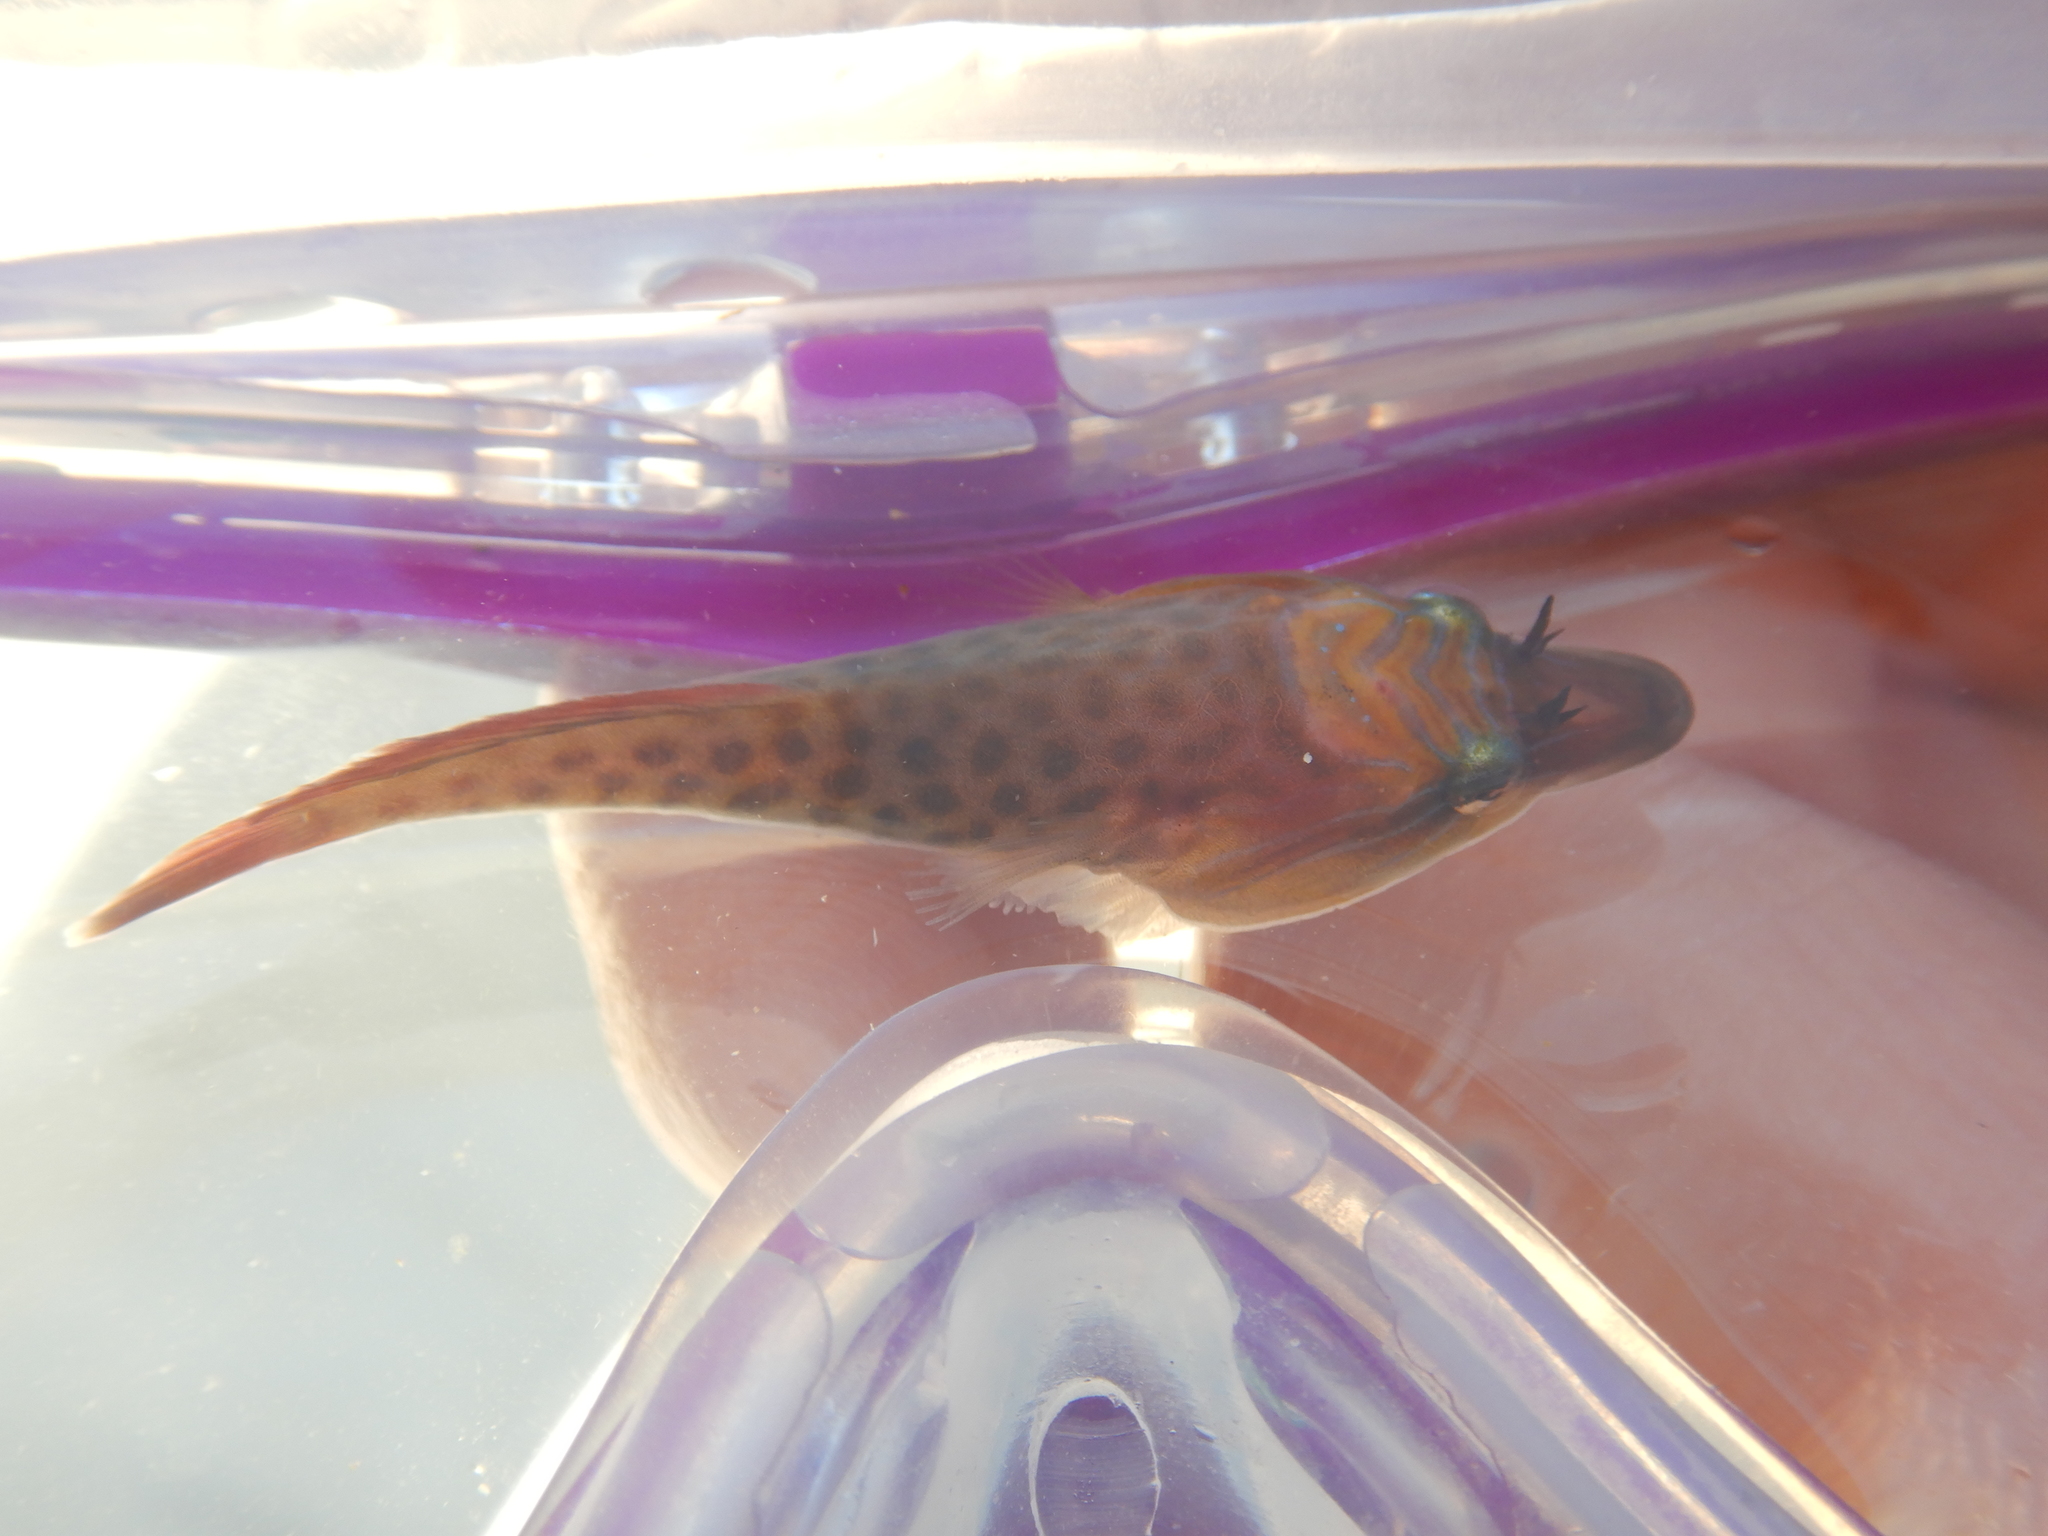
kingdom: Animalia
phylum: Chordata
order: Gobiesociformes
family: Gobiesocidae
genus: Lepadogaster
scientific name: Lepadogaster lepadogaster
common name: Cornish sucker
